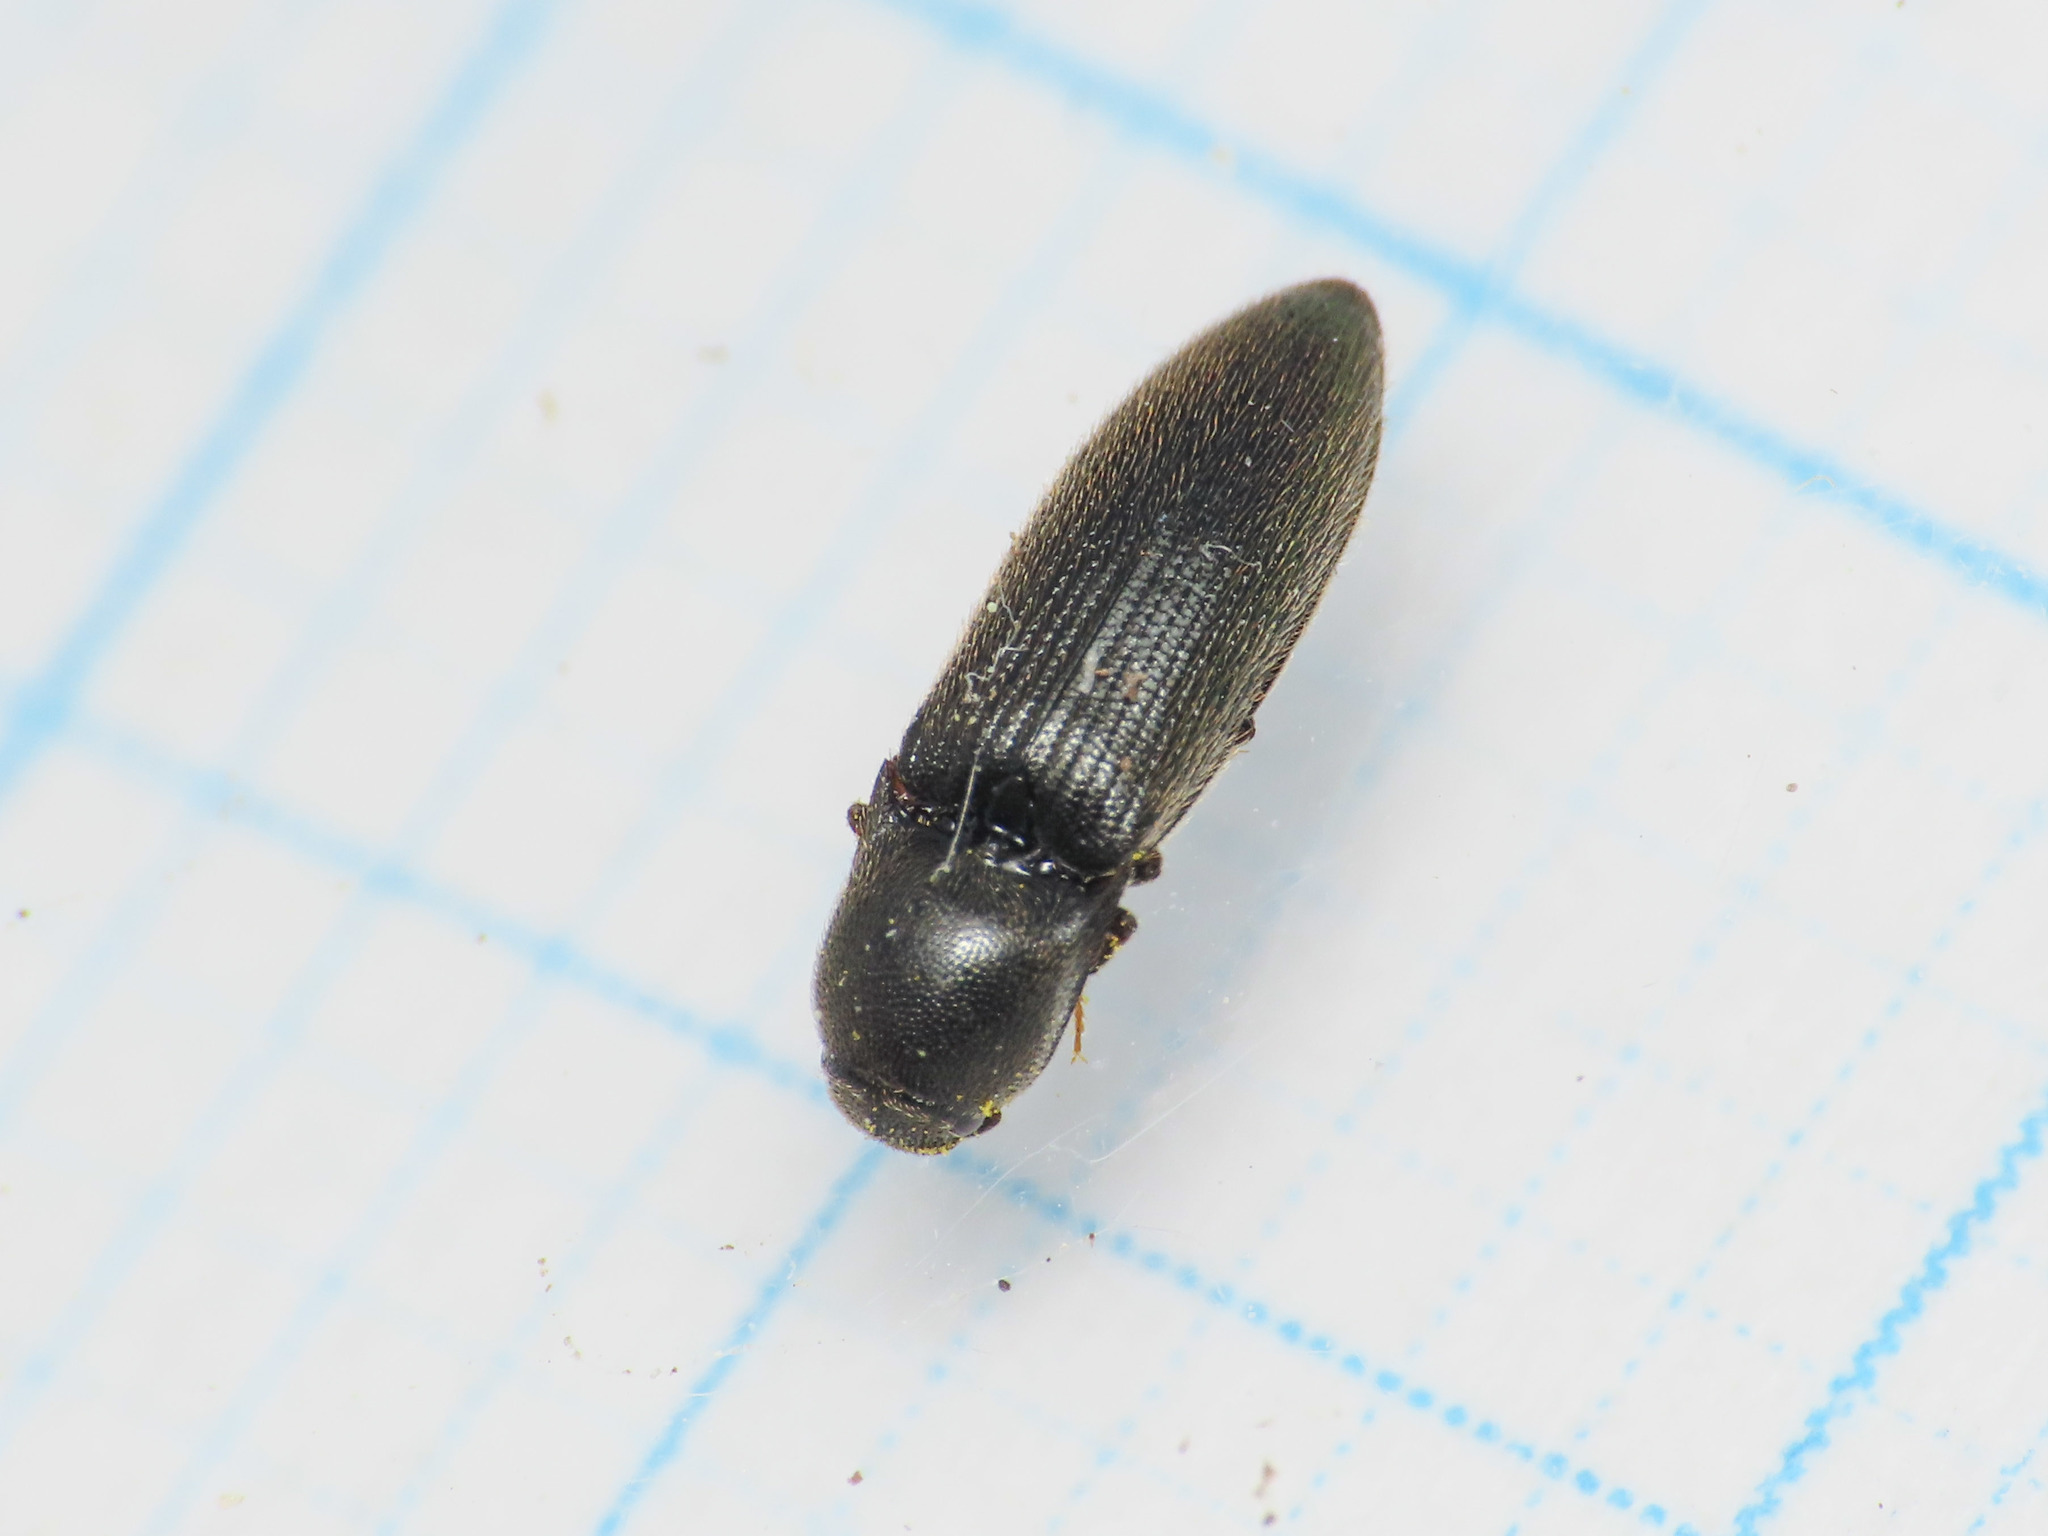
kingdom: Animalia
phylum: Arthropoda
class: Insecta
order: Coleoptera
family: Elateridae
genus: Idolus
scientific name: Idolus picipennis
